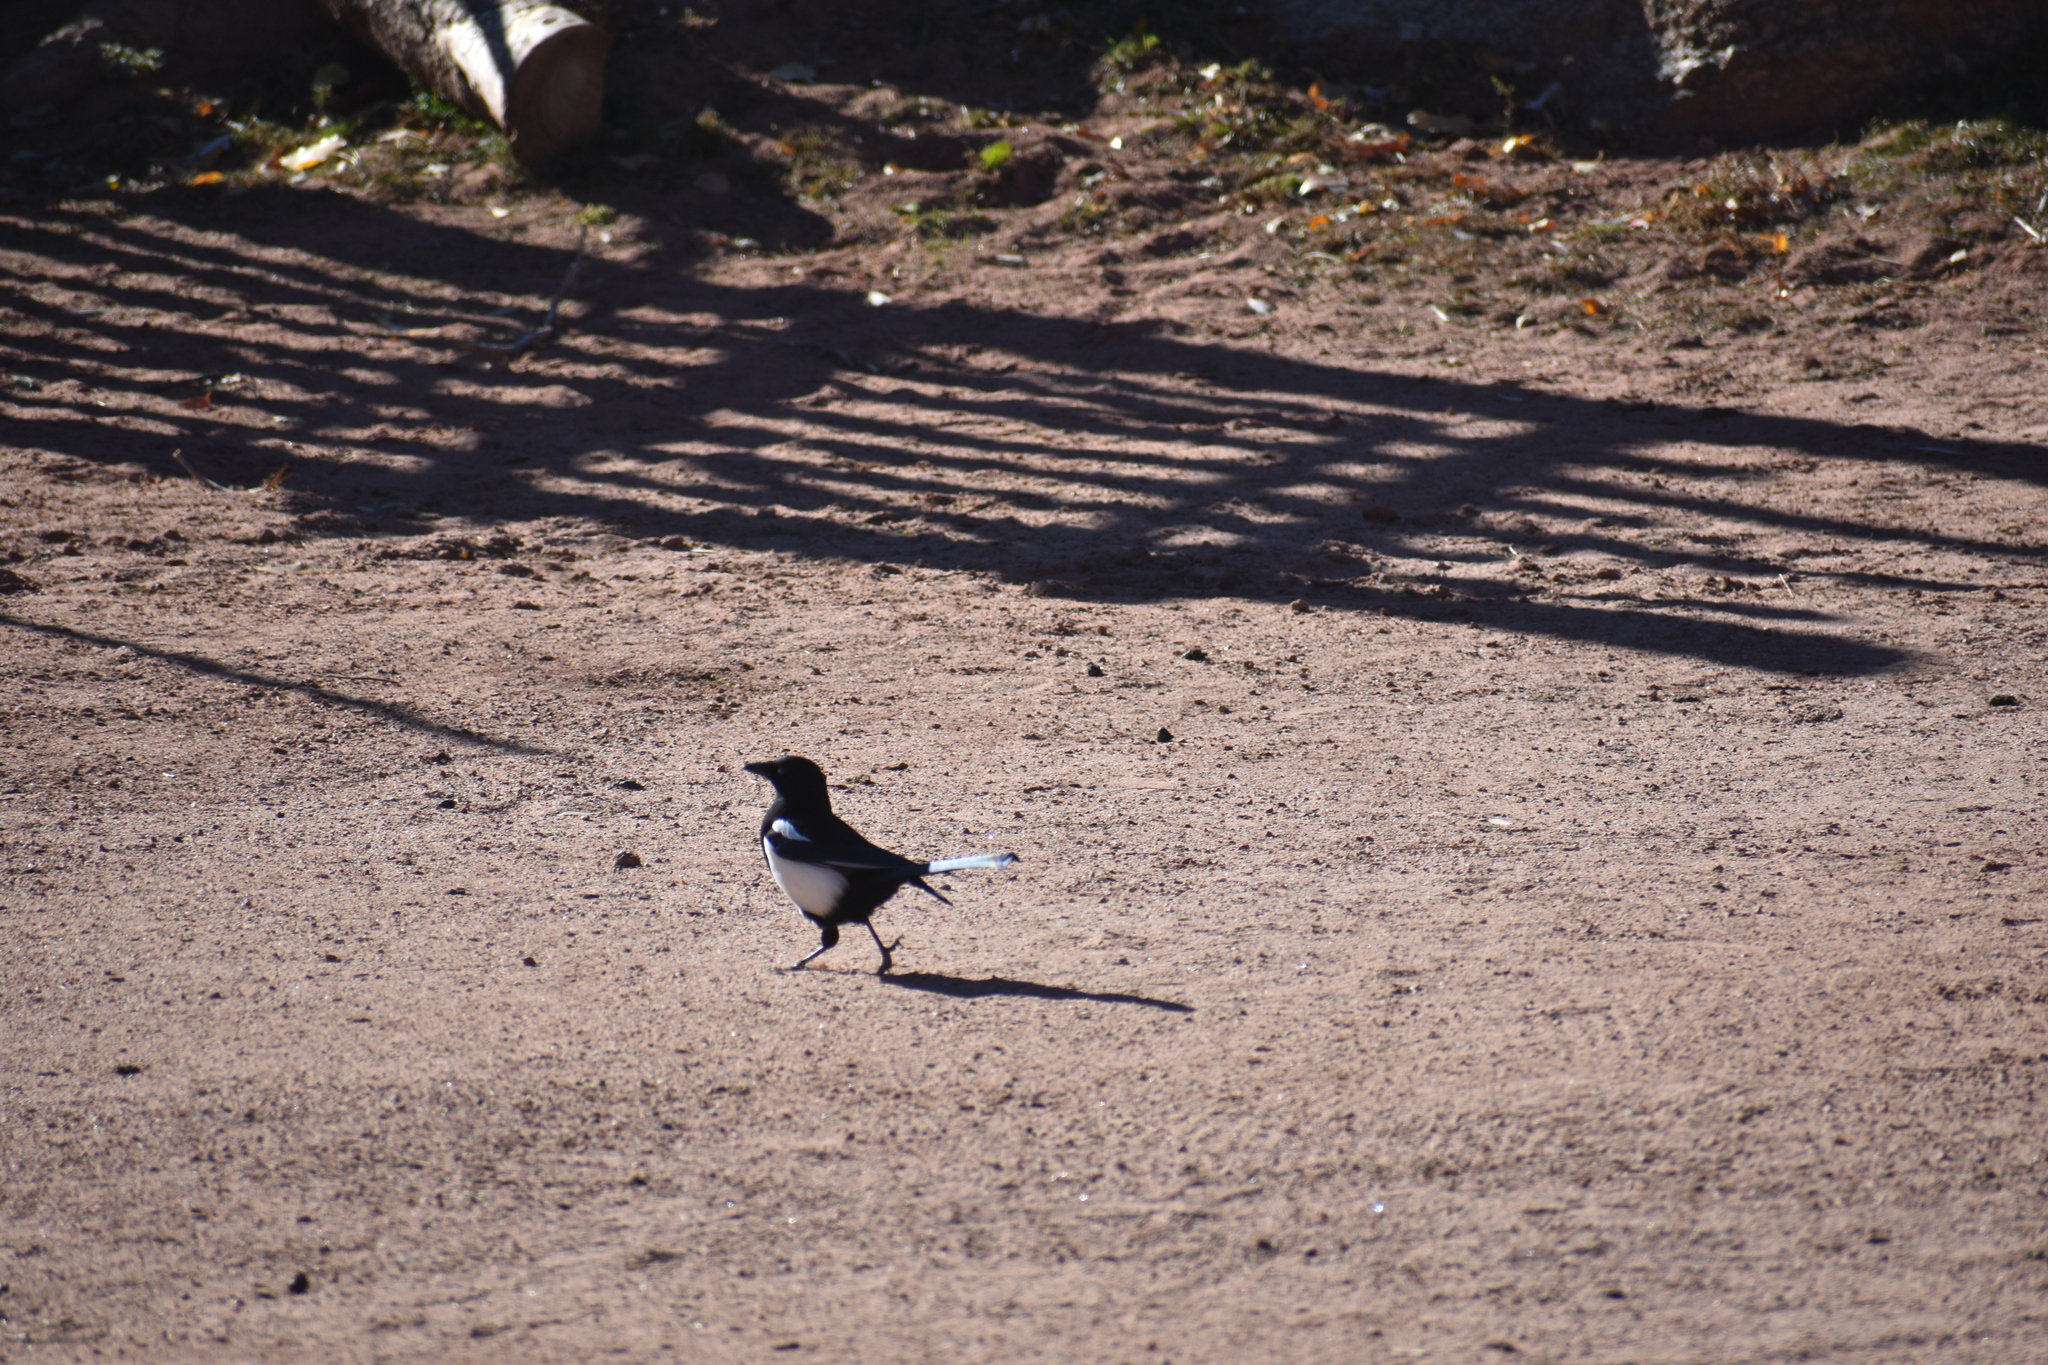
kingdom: Animalia
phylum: Chordata
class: Aves
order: Passeriformes
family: Corvidae
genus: Pica
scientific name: Pica hudsonia
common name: Black-billed magpie
